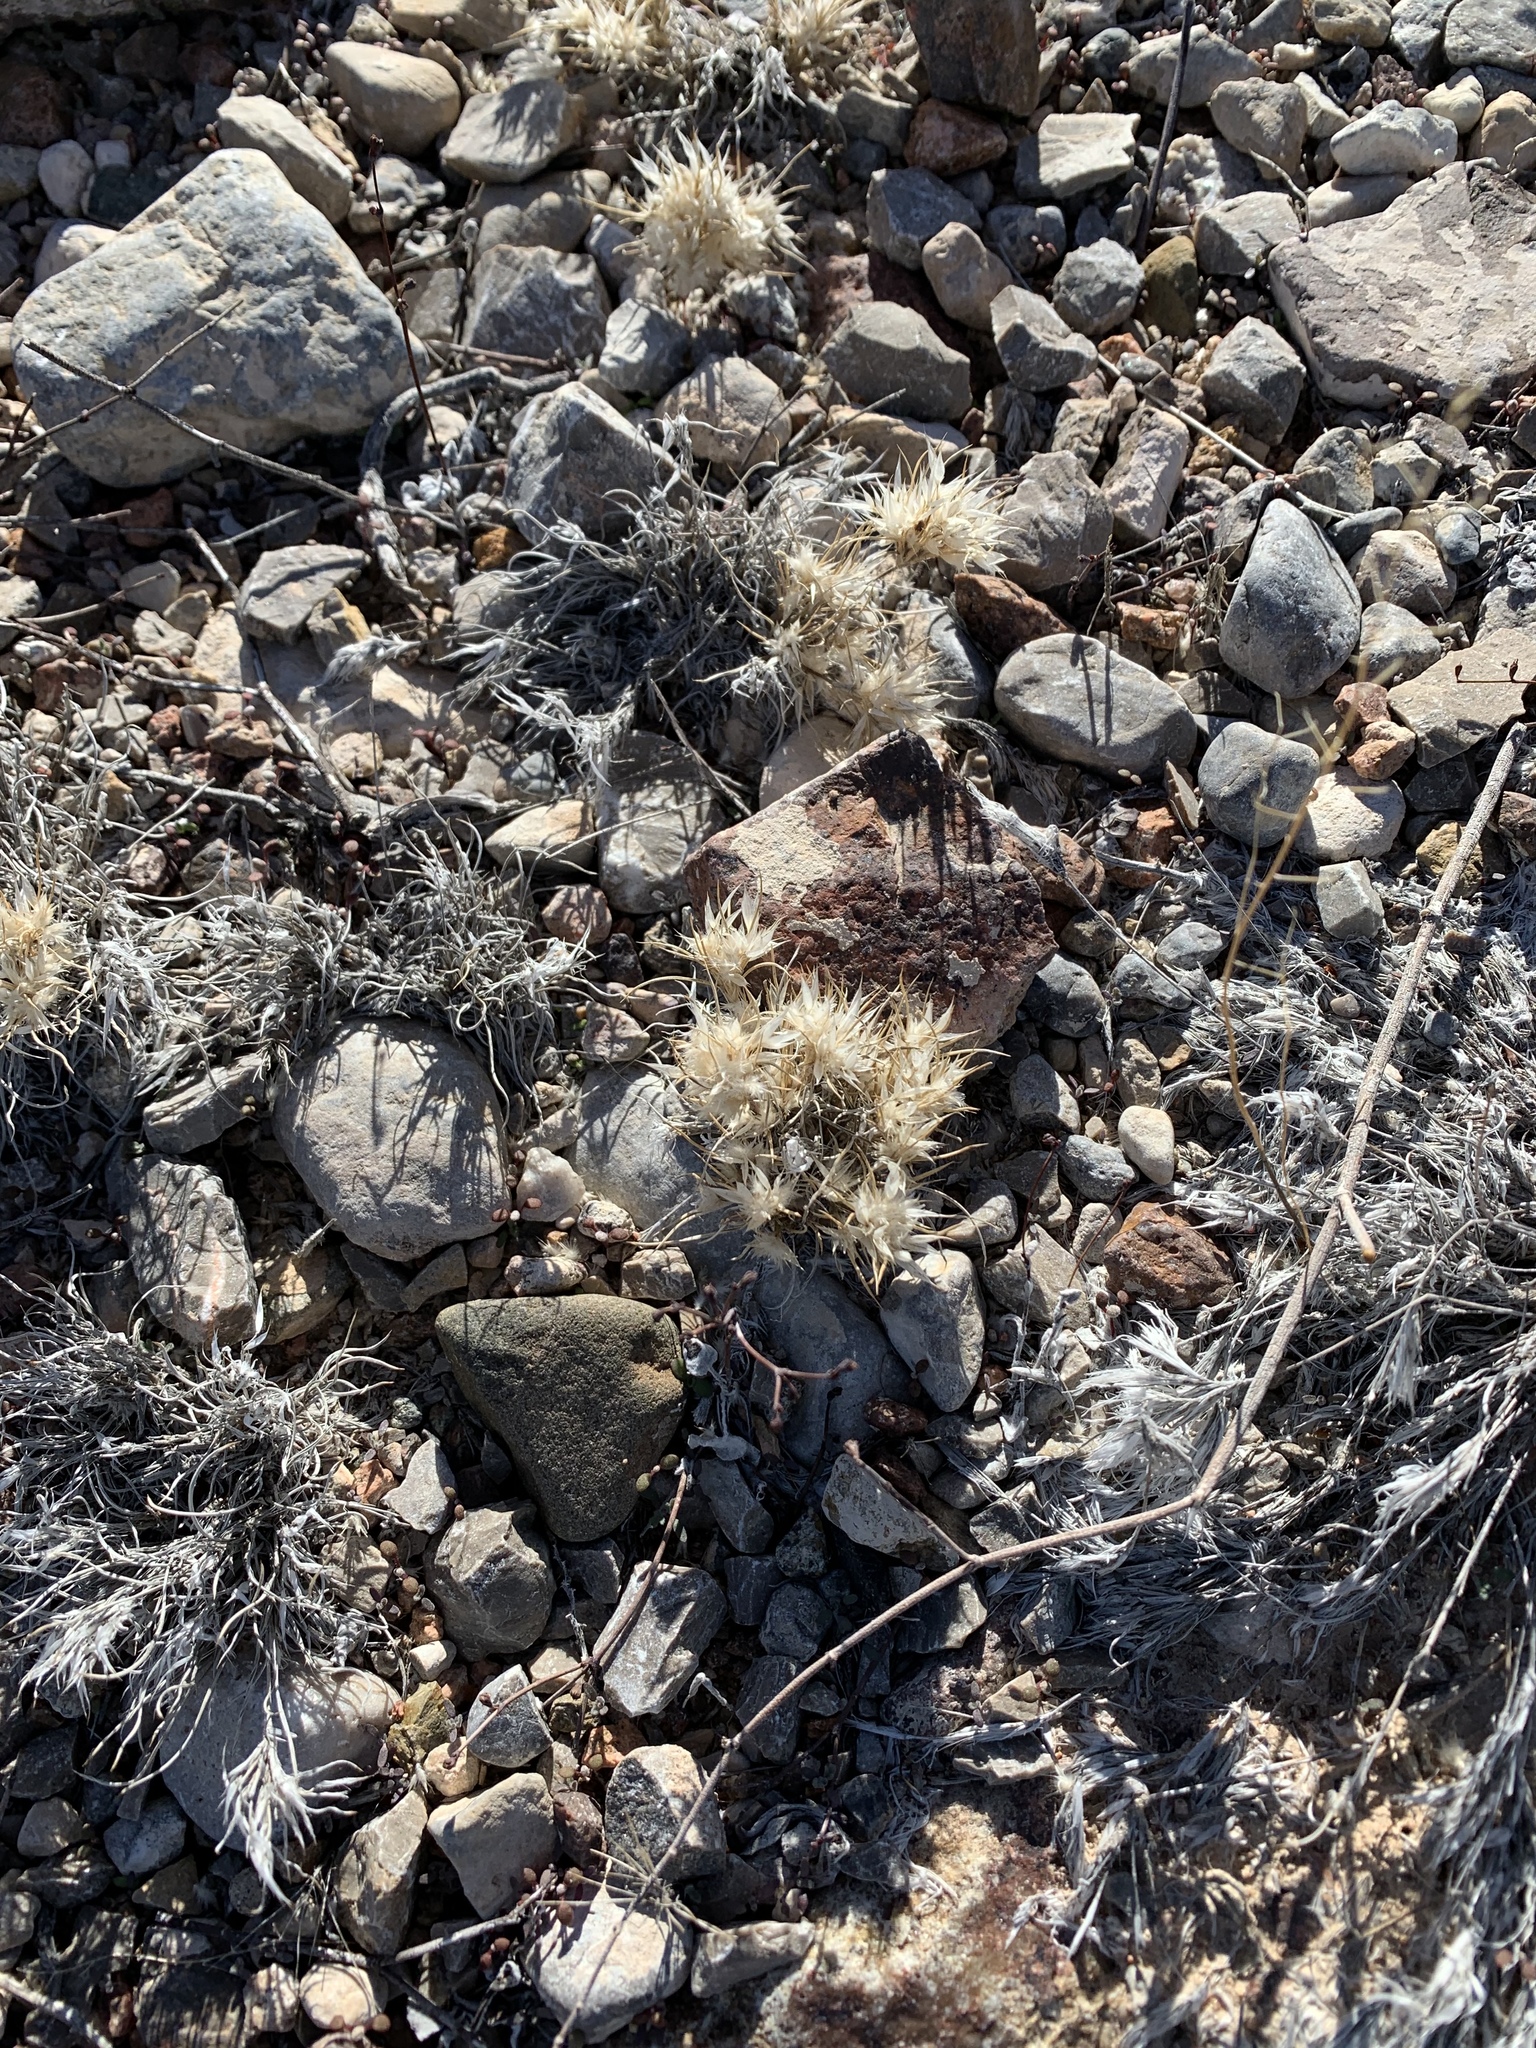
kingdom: Plantae
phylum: Tracheophyta
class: Liliopsida
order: Poales
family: Poaceae
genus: Dasyochloa
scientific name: Dasyochloa pulchella
